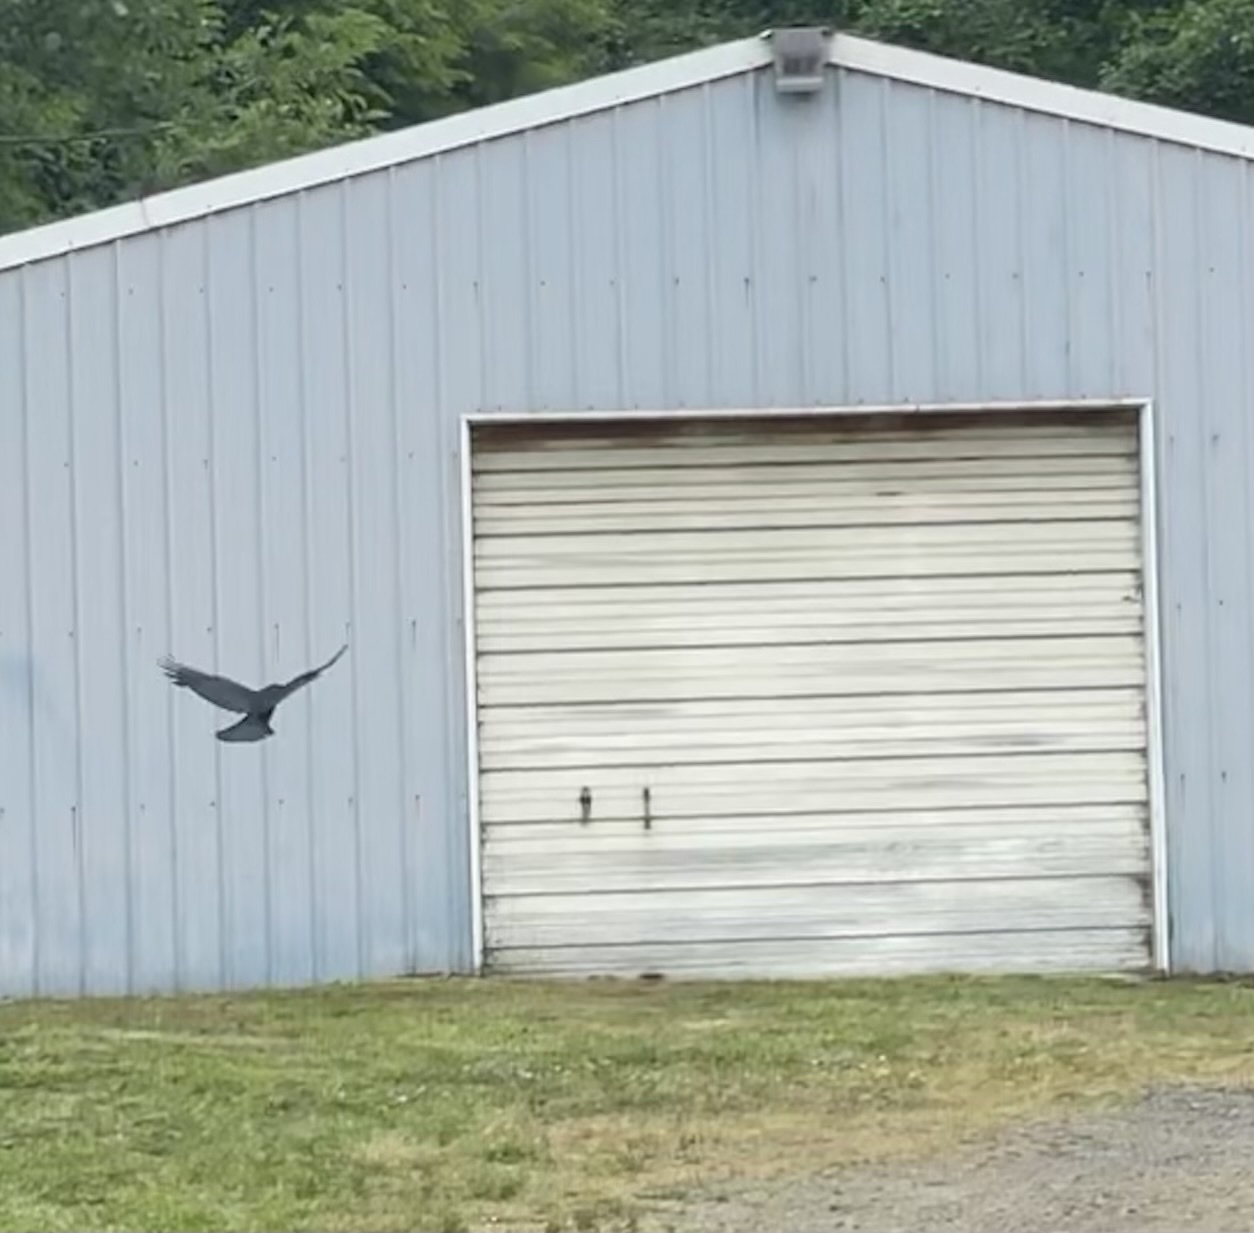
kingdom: Animalia
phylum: Chordata
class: Aves
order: Passeriformes
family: Corvidae
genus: Corvus
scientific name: Corvus brachyrhynchos
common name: American crow
